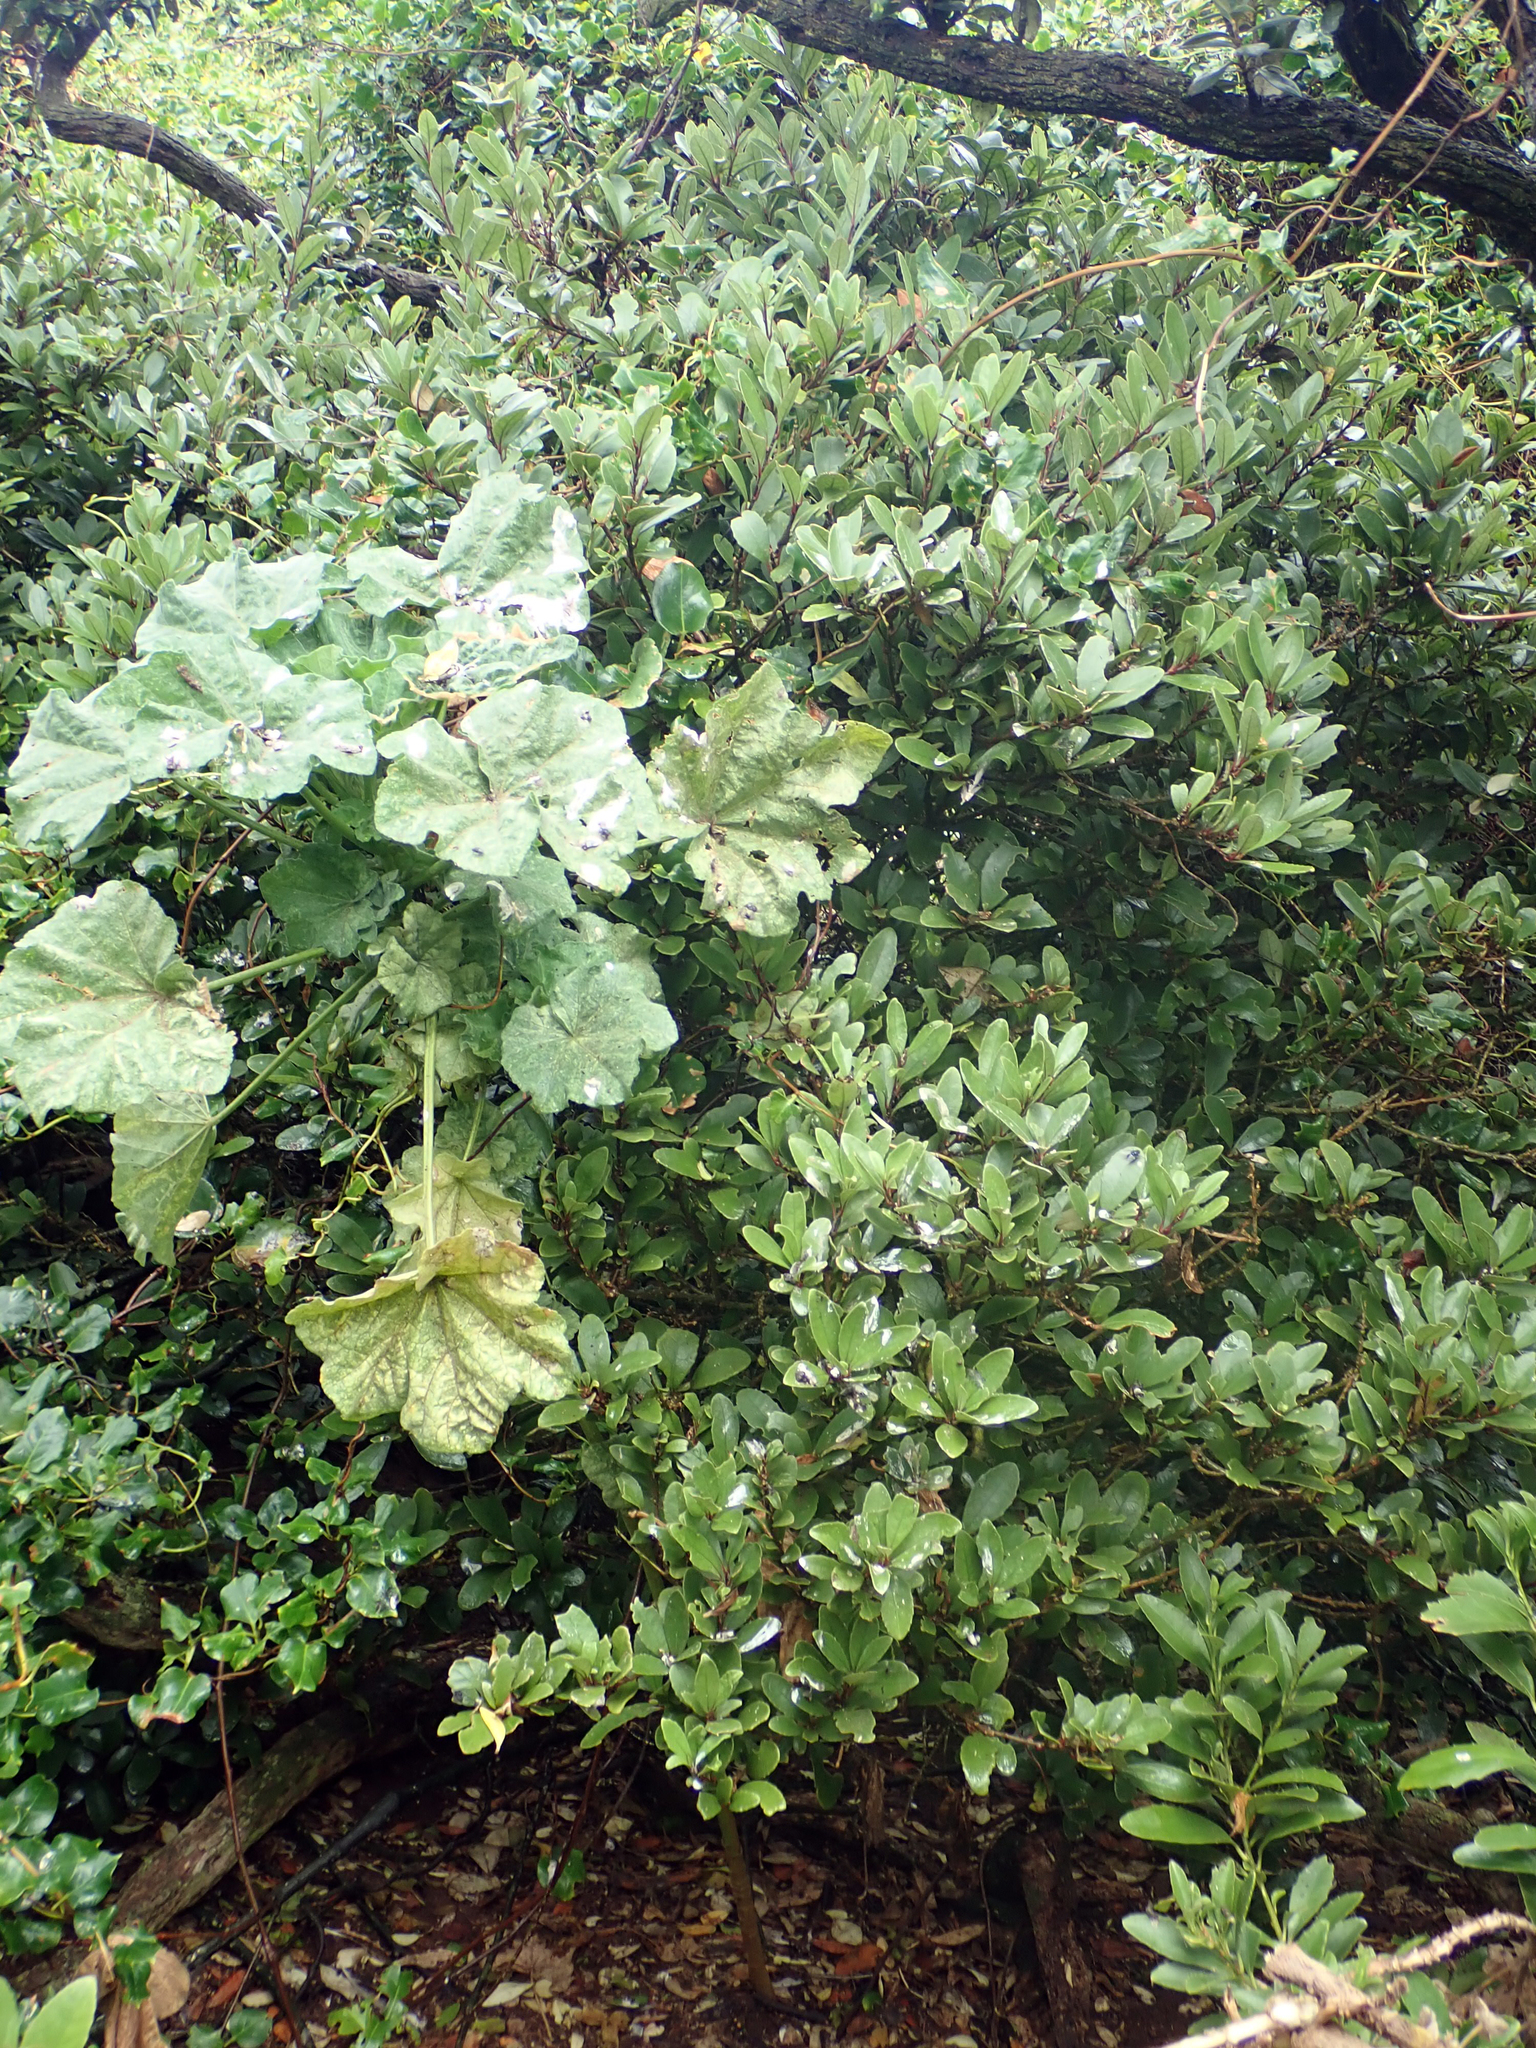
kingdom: Plantae
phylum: Tracheophyta
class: Magnoliopsida
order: Malpighiales
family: Violaceae
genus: Melicytus
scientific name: Melicytus chathamicus
